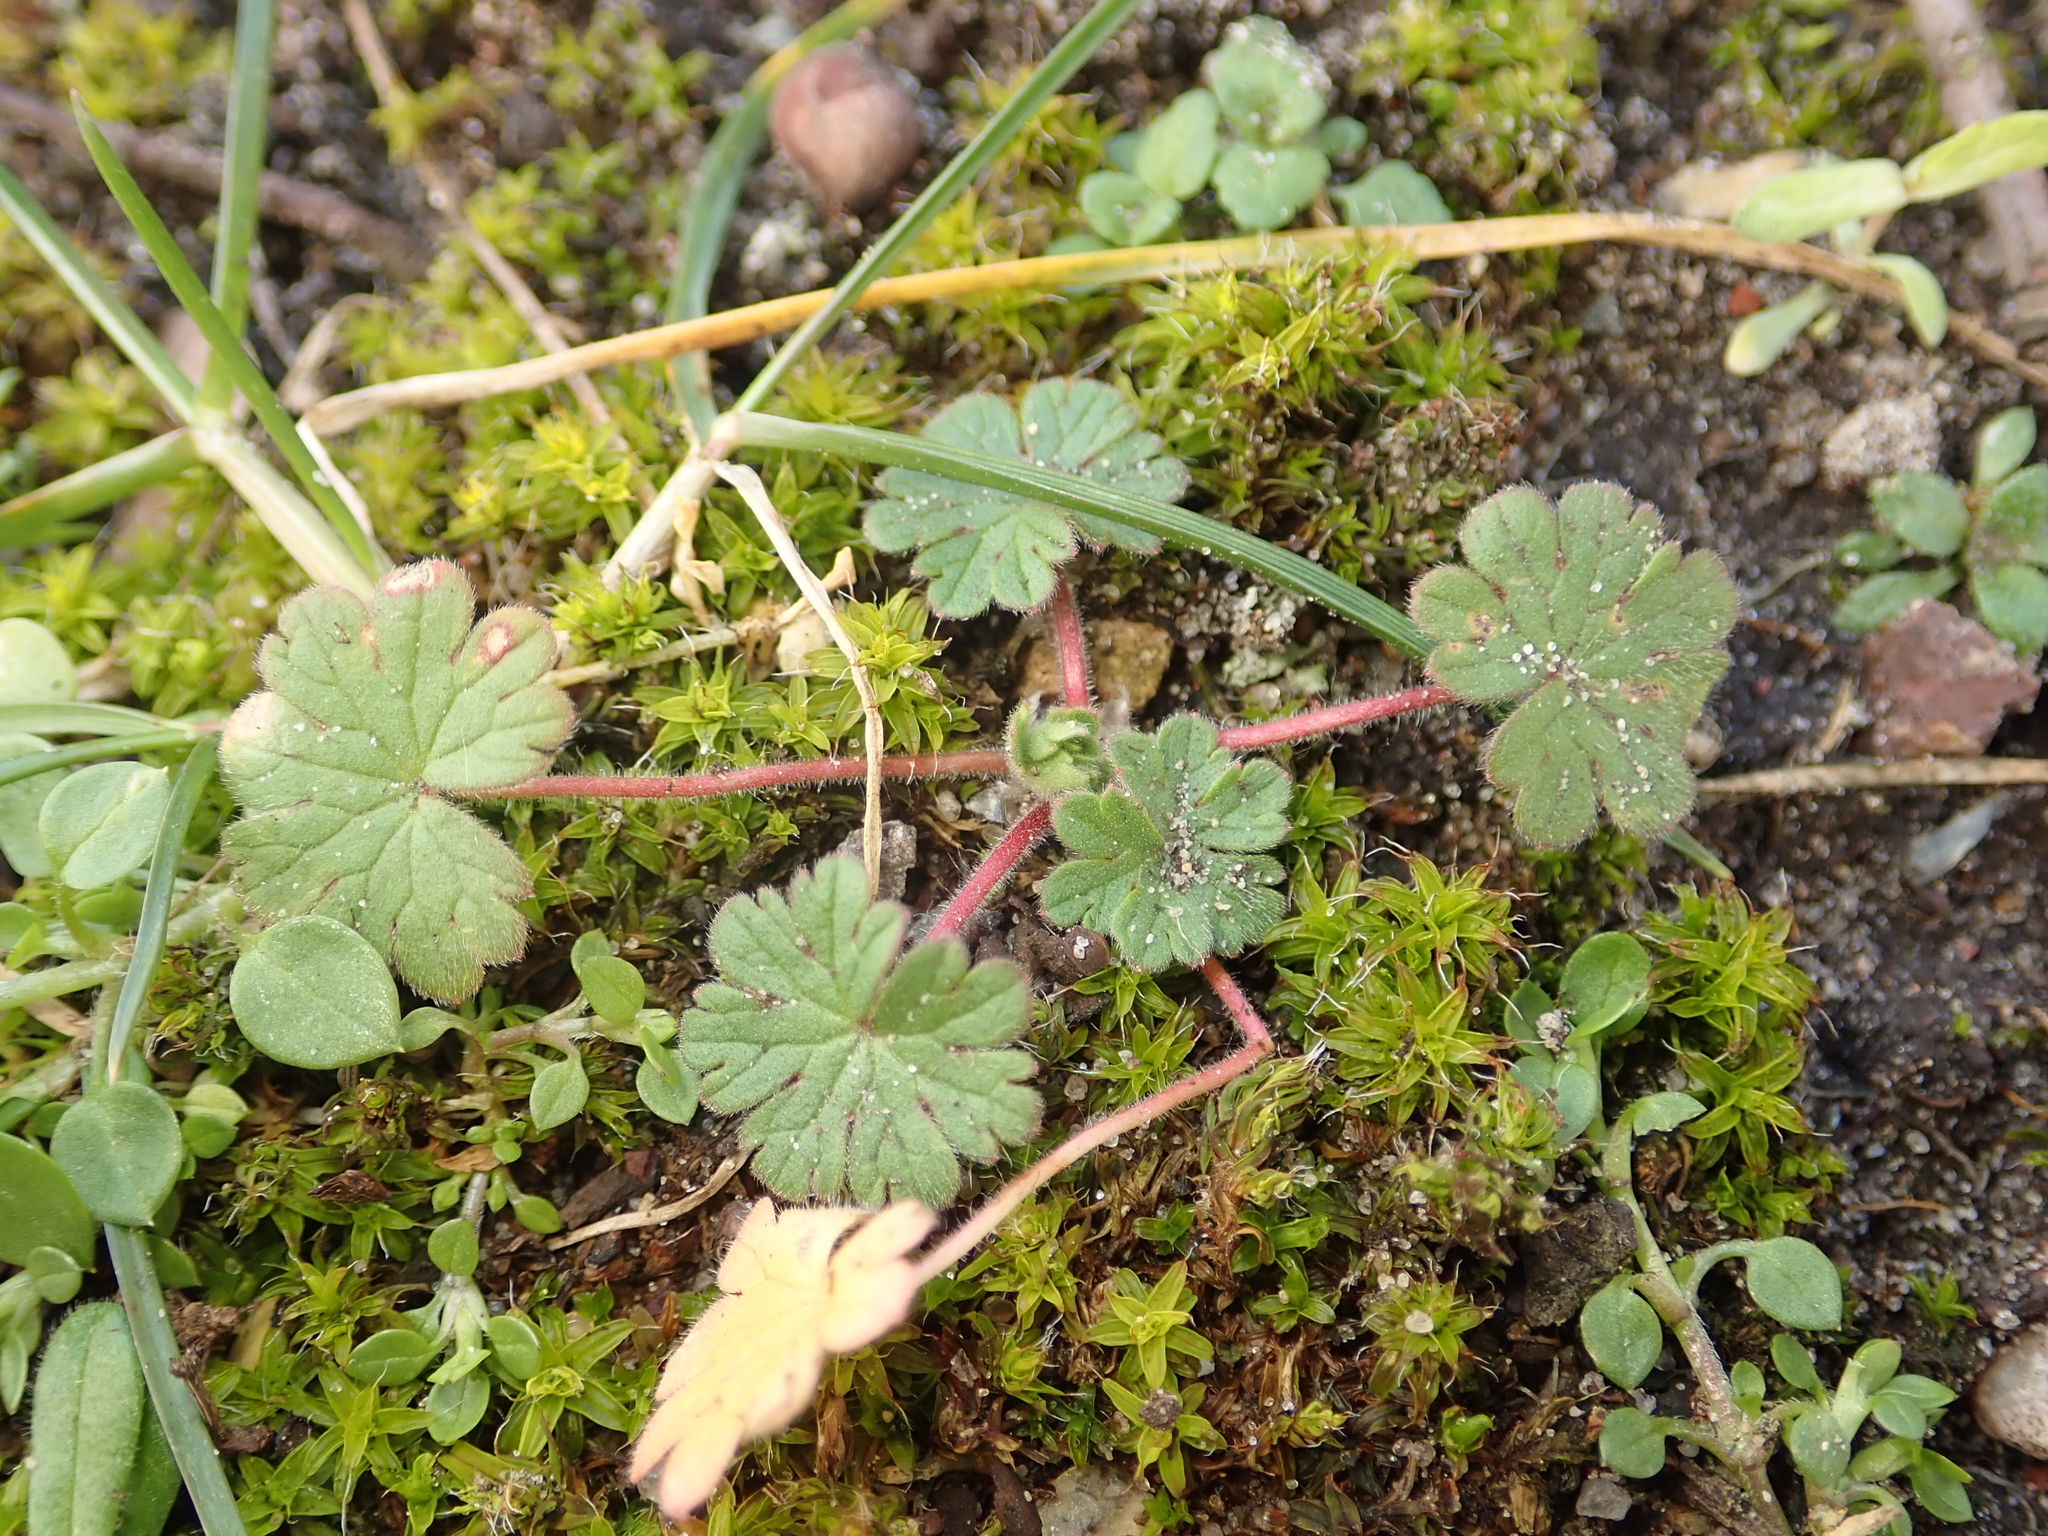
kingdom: Plantae
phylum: Tracheophyta
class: Magnoliopsida
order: Geraniales
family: Geraniaceae
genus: Geranium
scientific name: Geranium molle
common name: Dove's-foot crane's-bill
